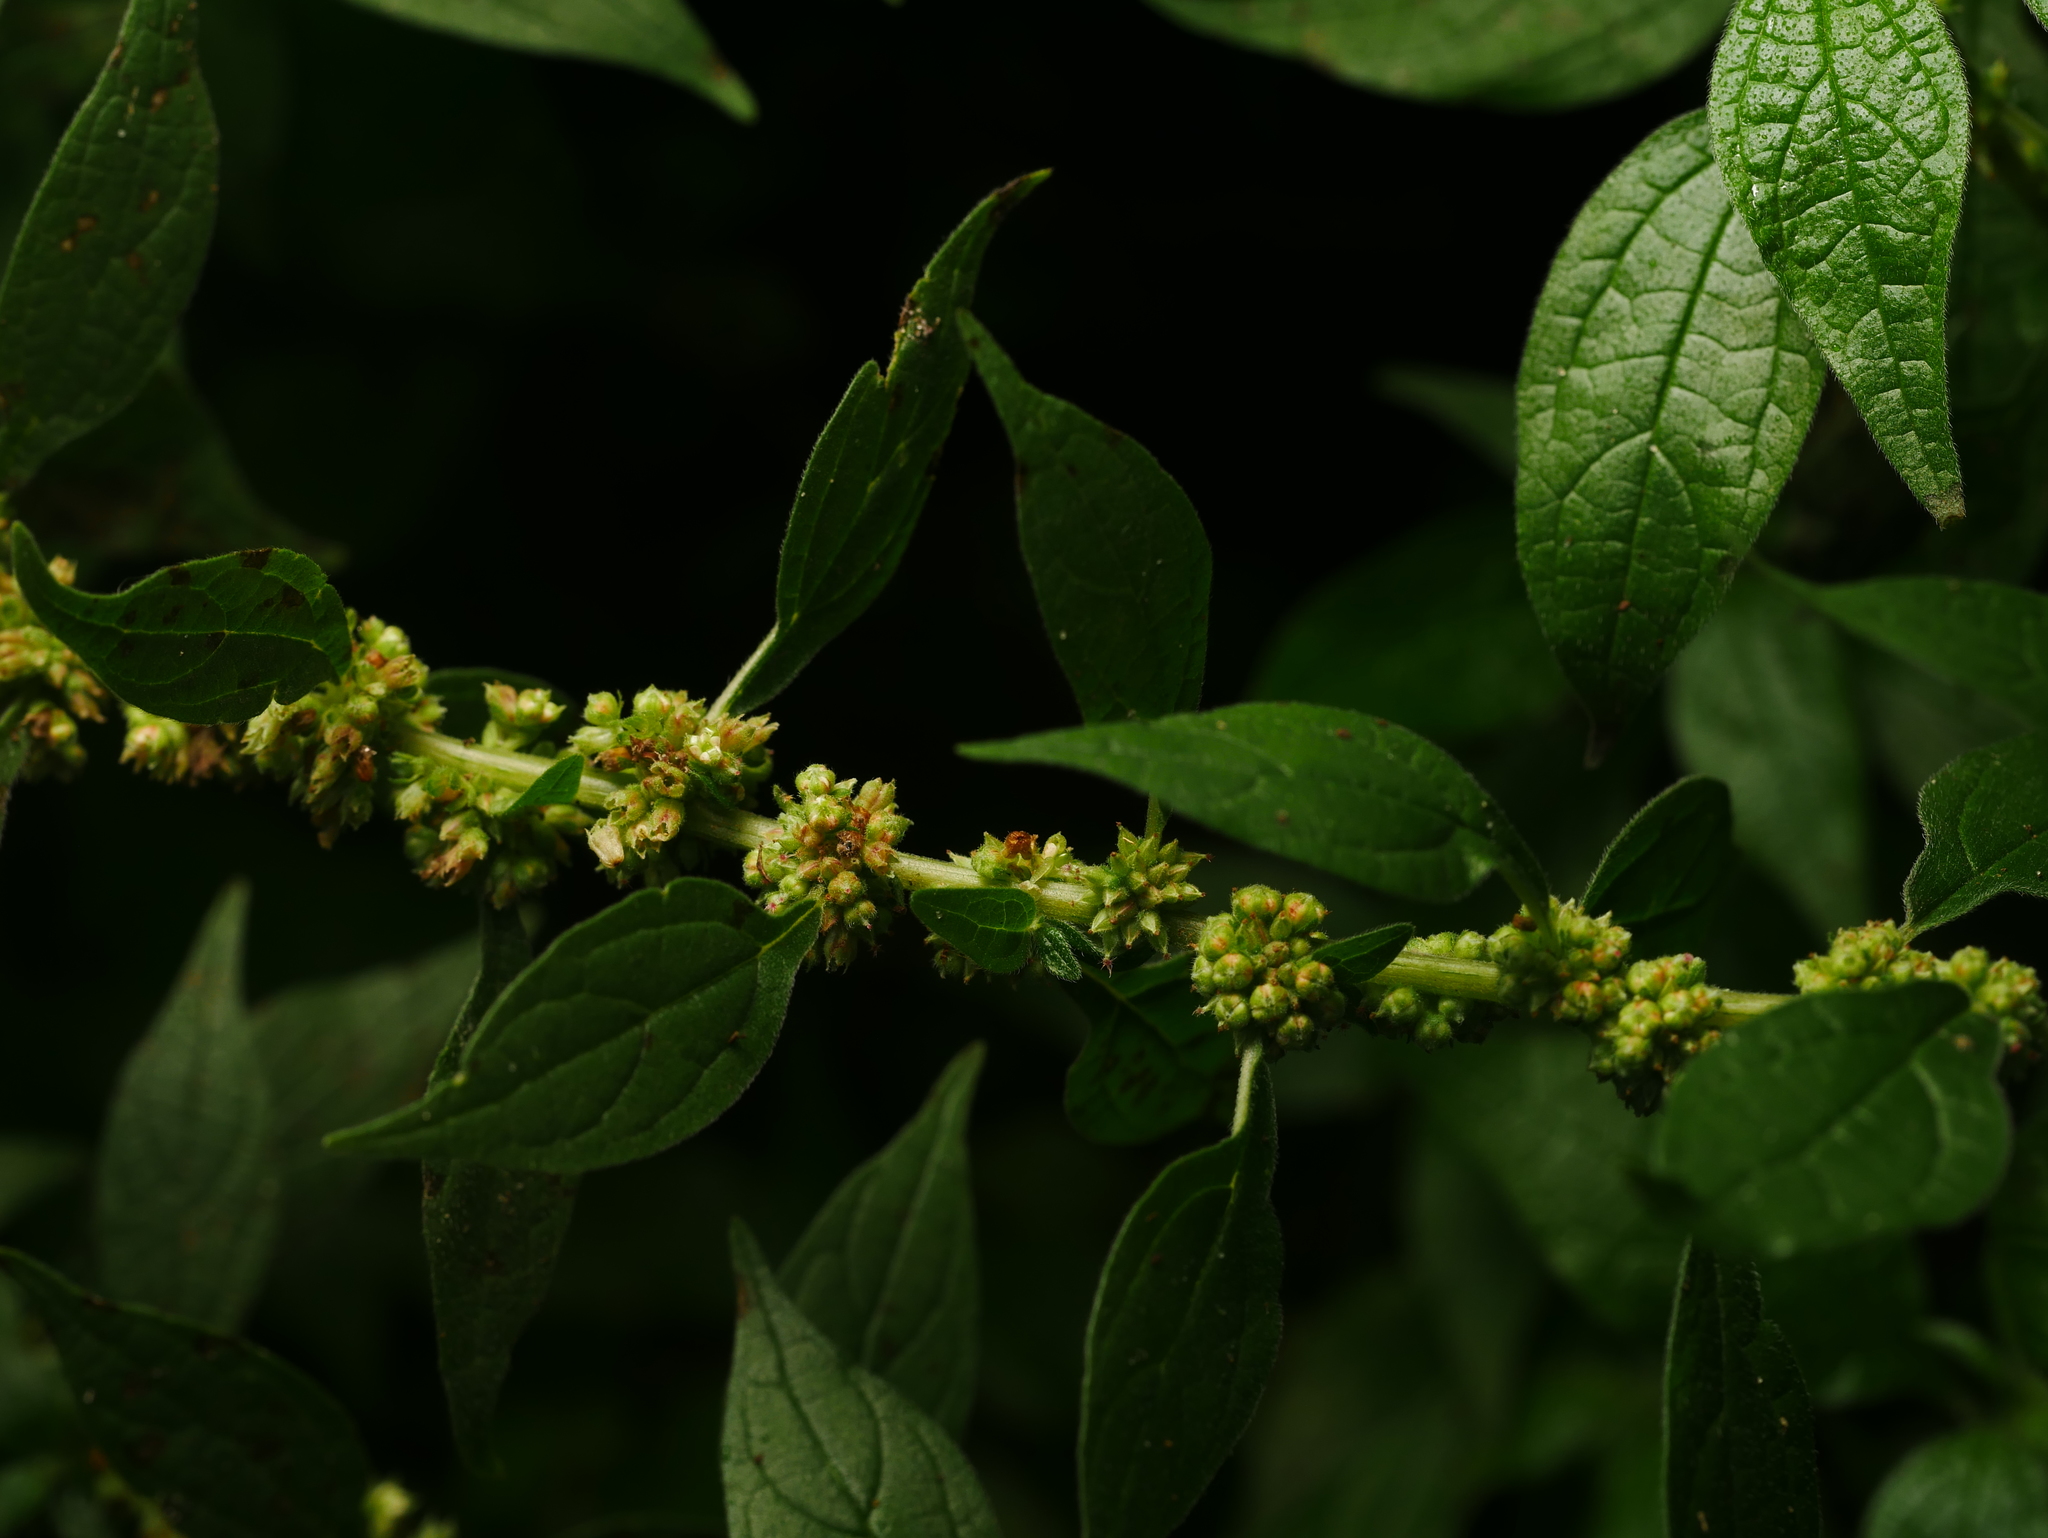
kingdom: Plantae
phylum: Tracheophyta
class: Magnoliopsida
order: Rosales
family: Urticaceae
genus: Parietaria
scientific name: Parietaria officinalis
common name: Eastern pellitory-of-the-wall
